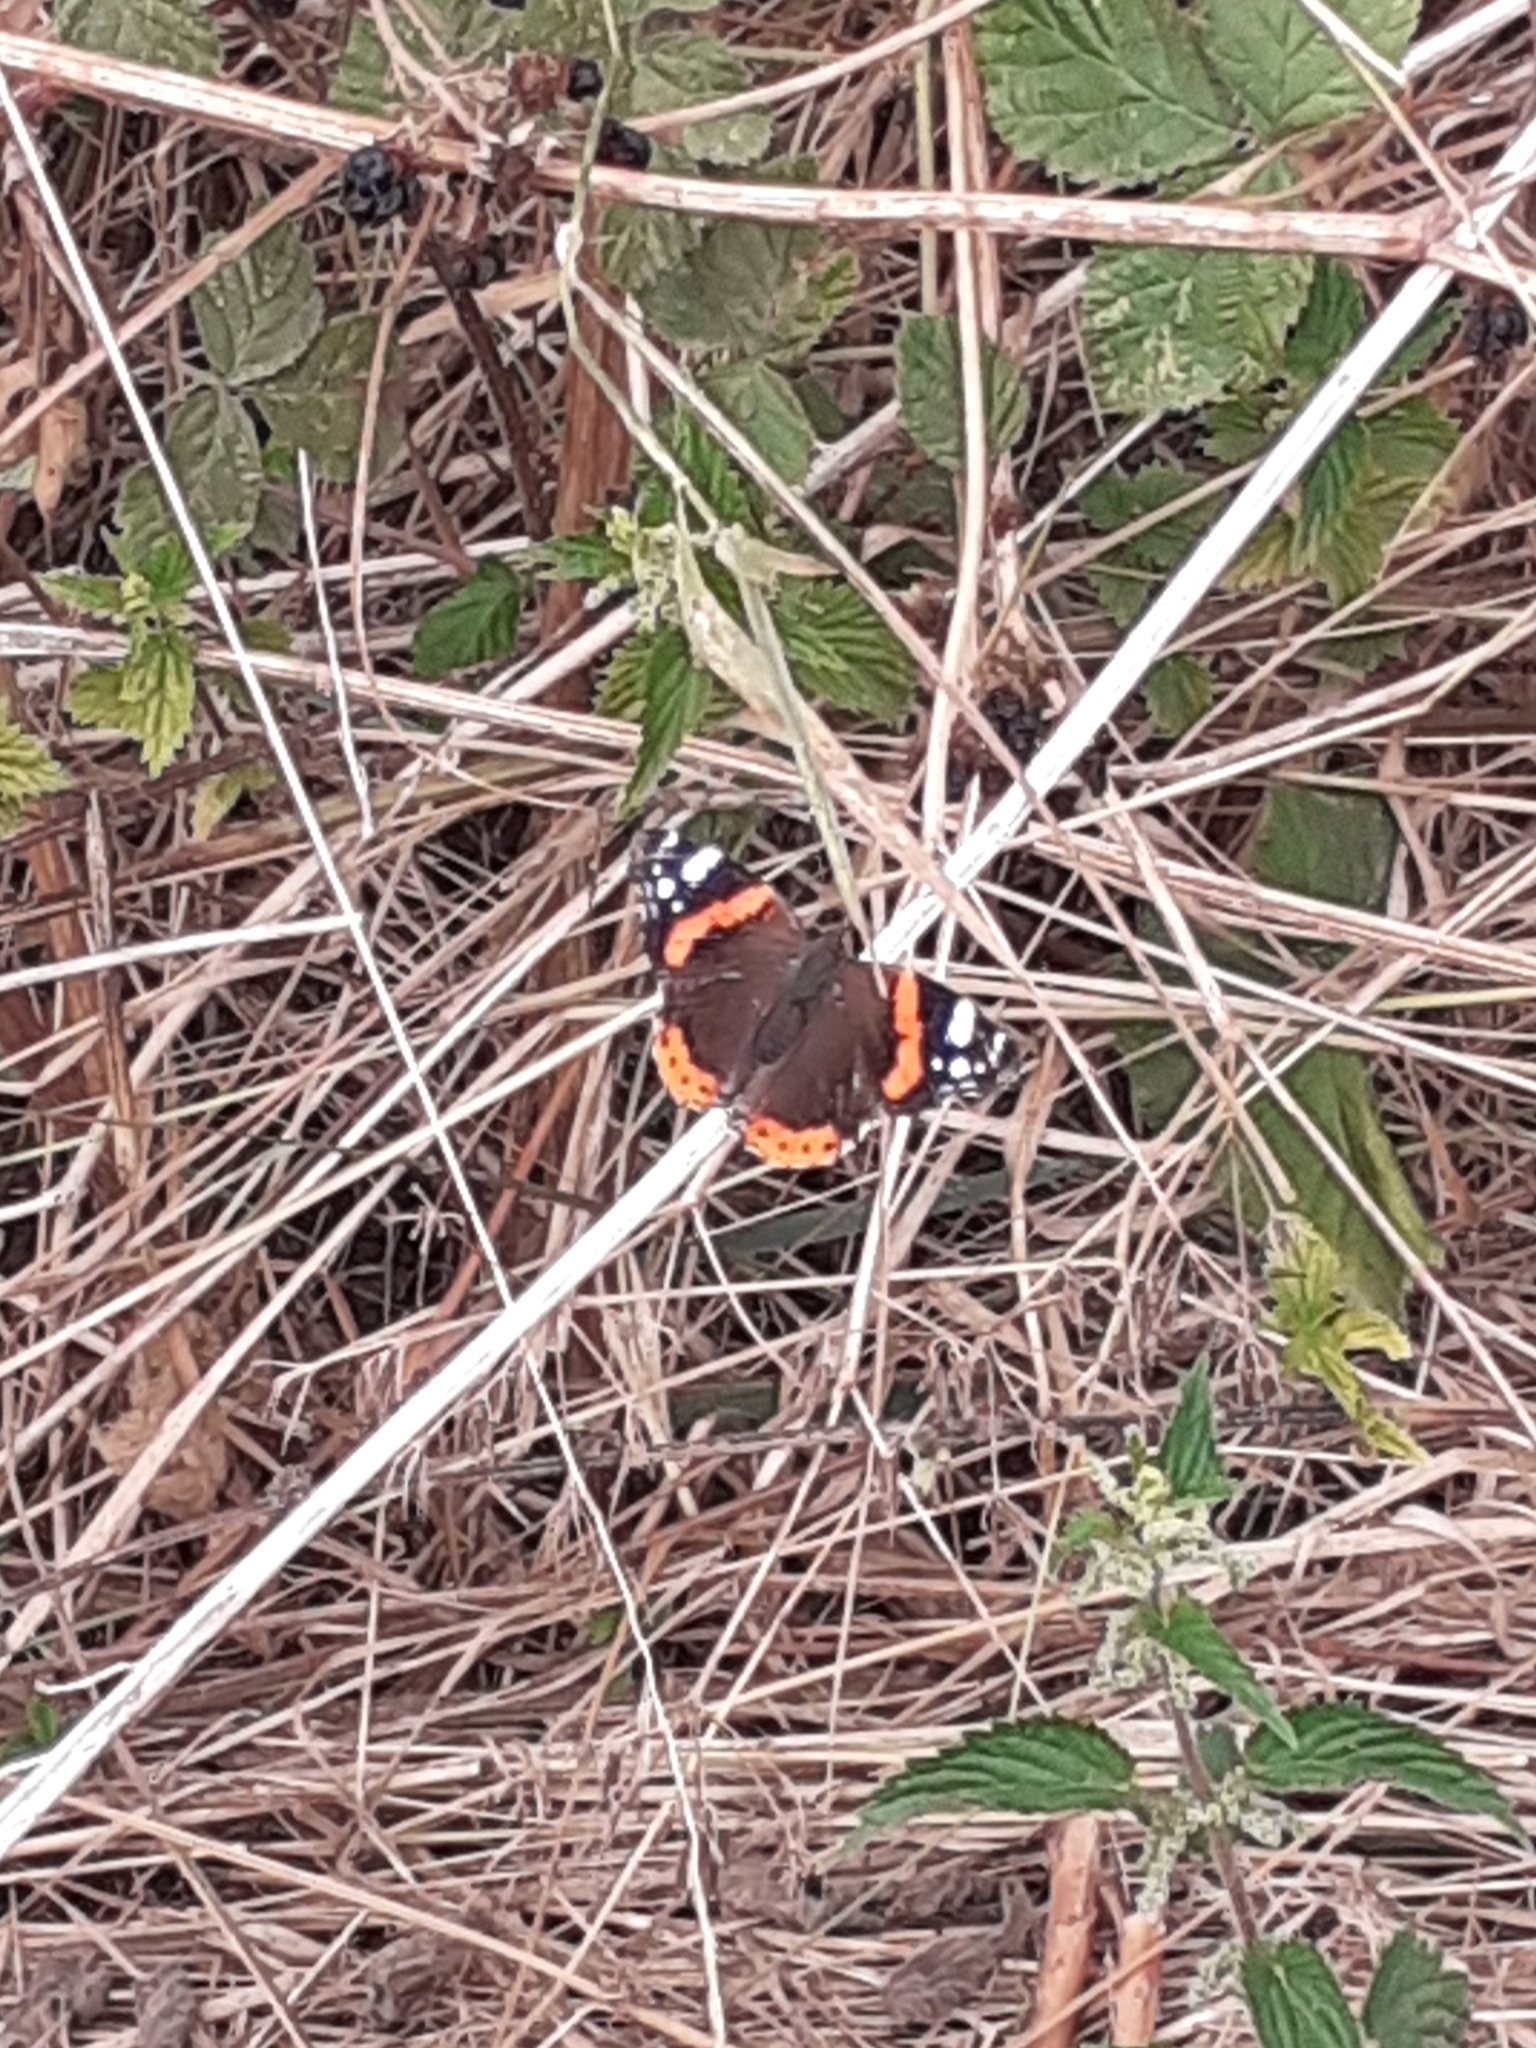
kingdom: Animalia
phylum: Arthropoda
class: Insecta
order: Lepidoptera
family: Nymphalidae
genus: Vanessa
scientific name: Vanessa atalanta
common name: Red admiral
